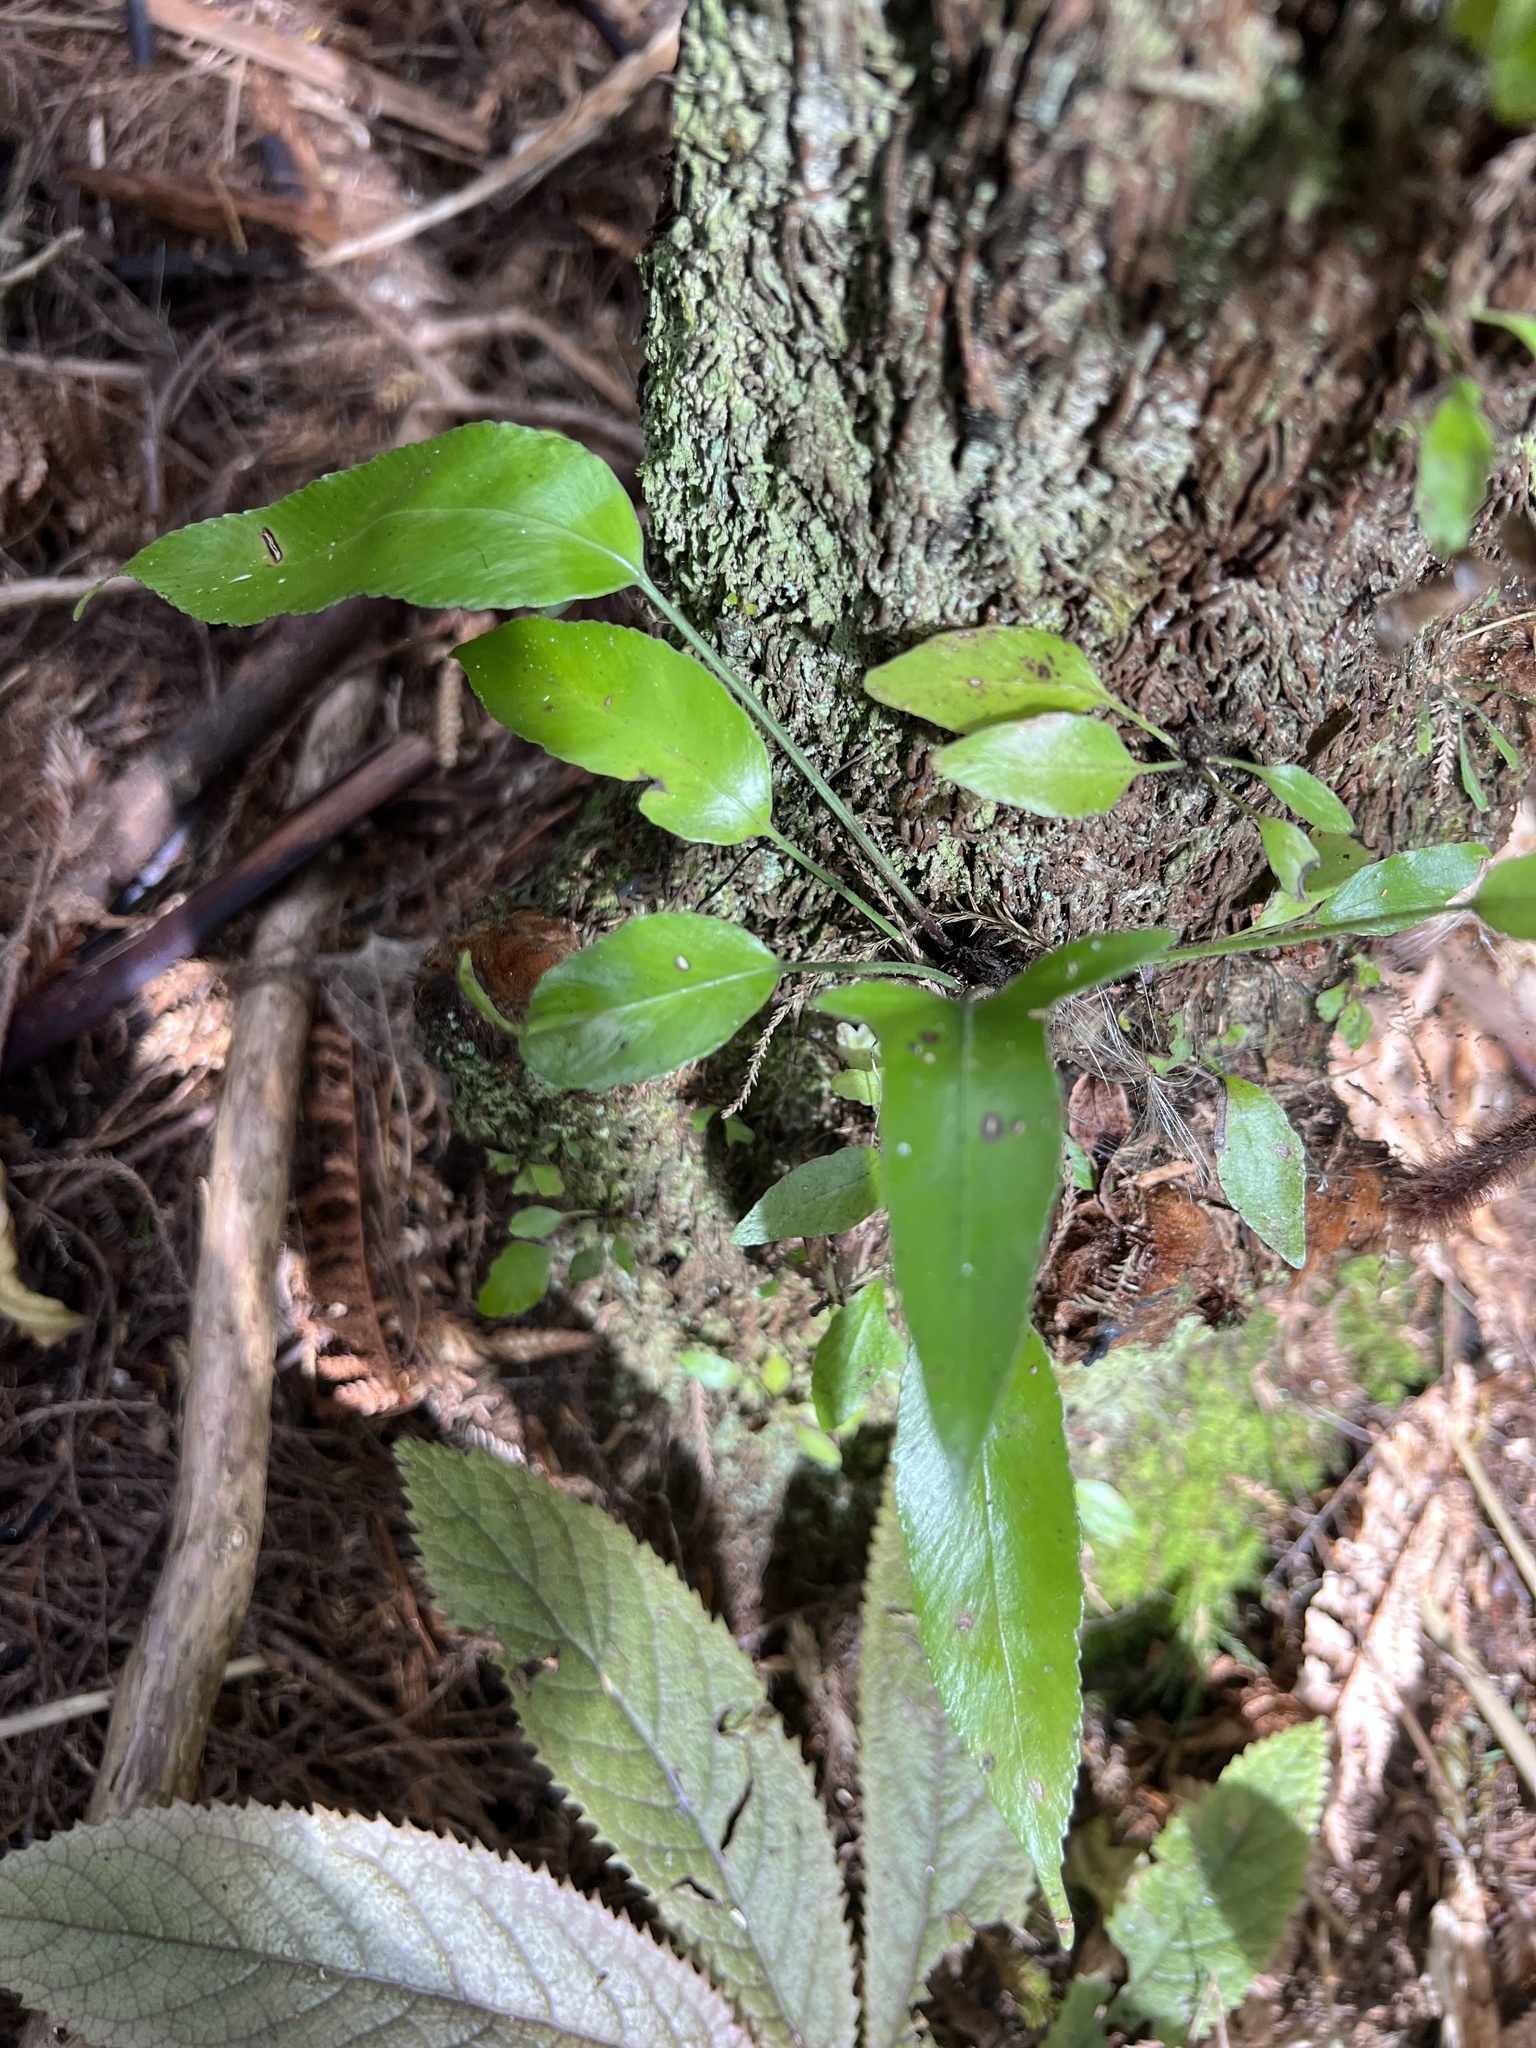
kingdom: Plantae
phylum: Tracheophyta
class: Polypodiopsida
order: Polypodiales
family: Aspleniaceae
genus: Asplenium
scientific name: Asplenium oblongifolium
